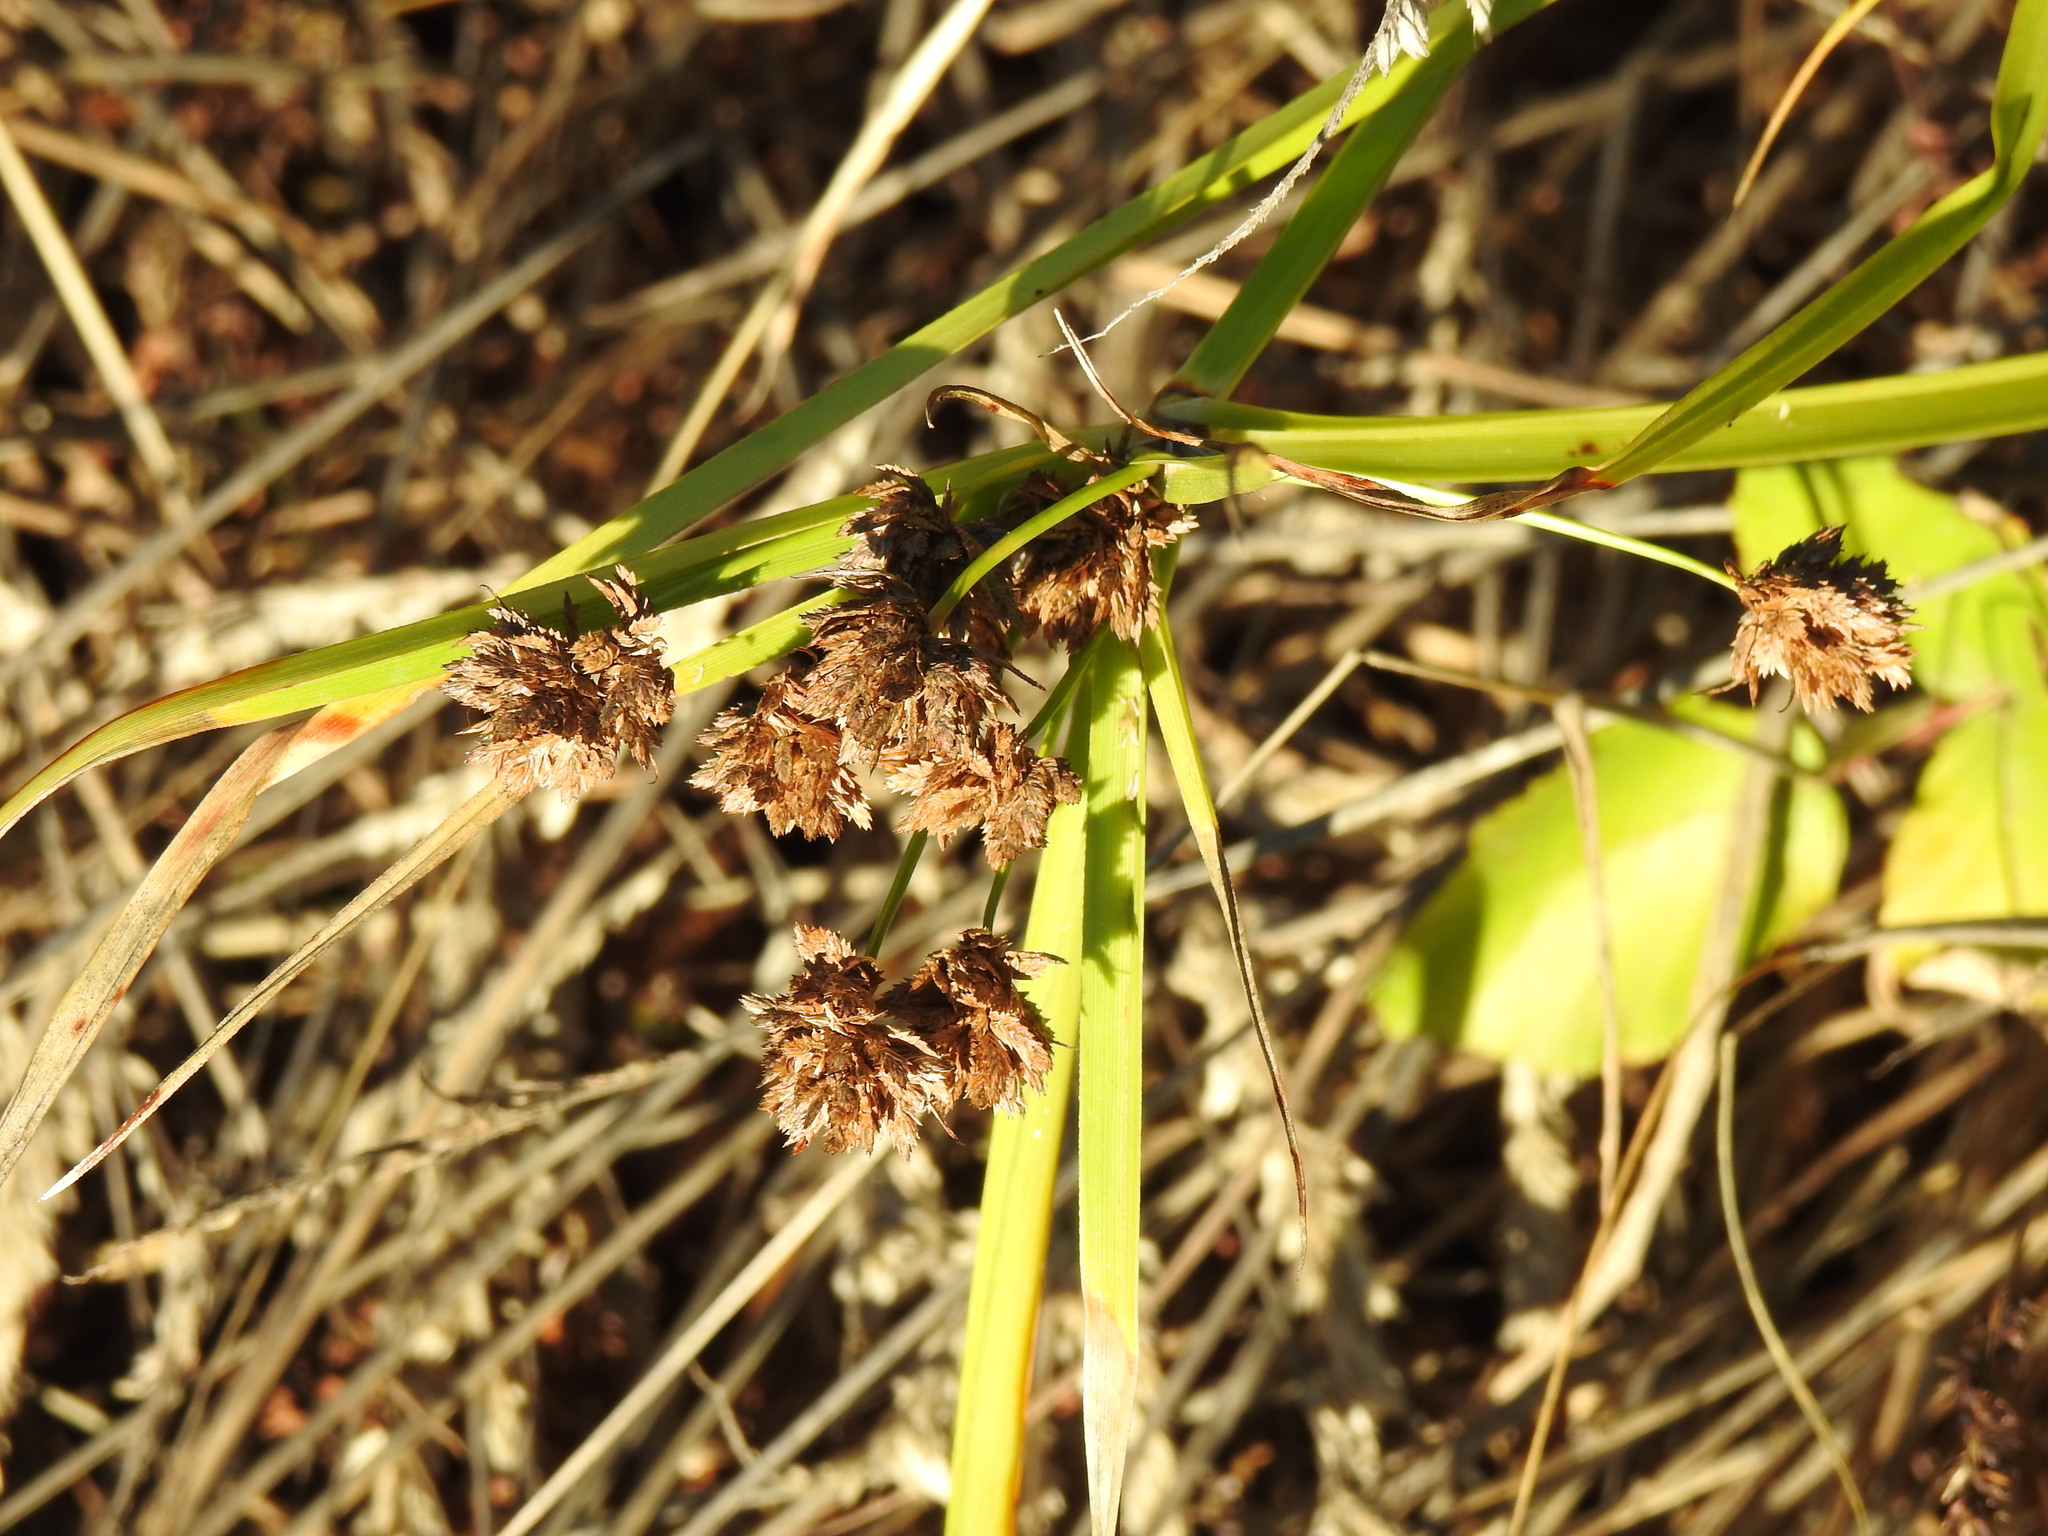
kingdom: Plantae
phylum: Tracheophyta
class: Liliopsida
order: Poales
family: Cyperaceae
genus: Cyperus
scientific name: Cyperus eragrostis
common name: Tall flatsedge
